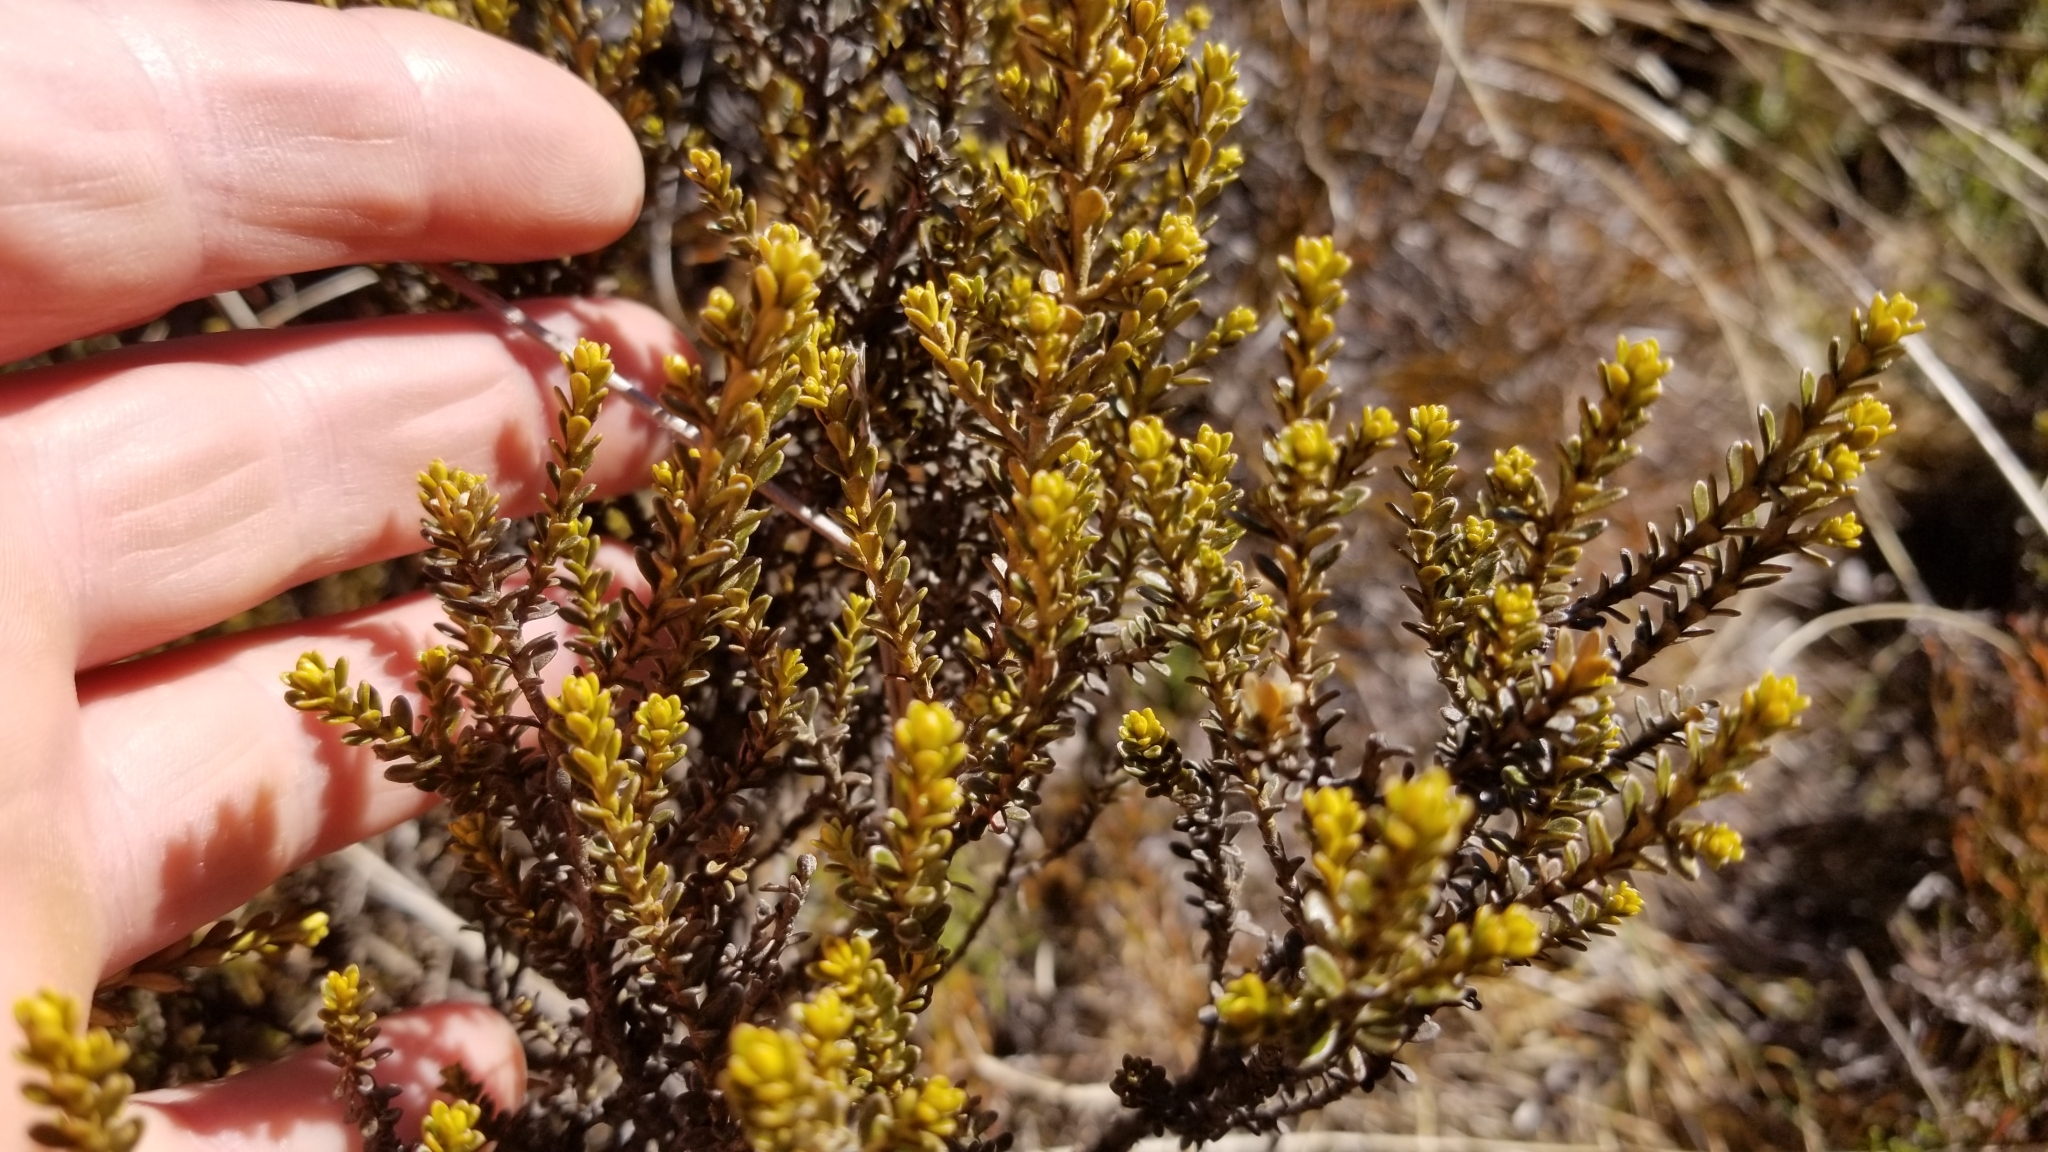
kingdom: Plantae
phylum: Tracheophyta
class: Magnoliopsida
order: Asterales
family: Asteraceae
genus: Ozothamnus
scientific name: Ozothamnus leptophyllus
